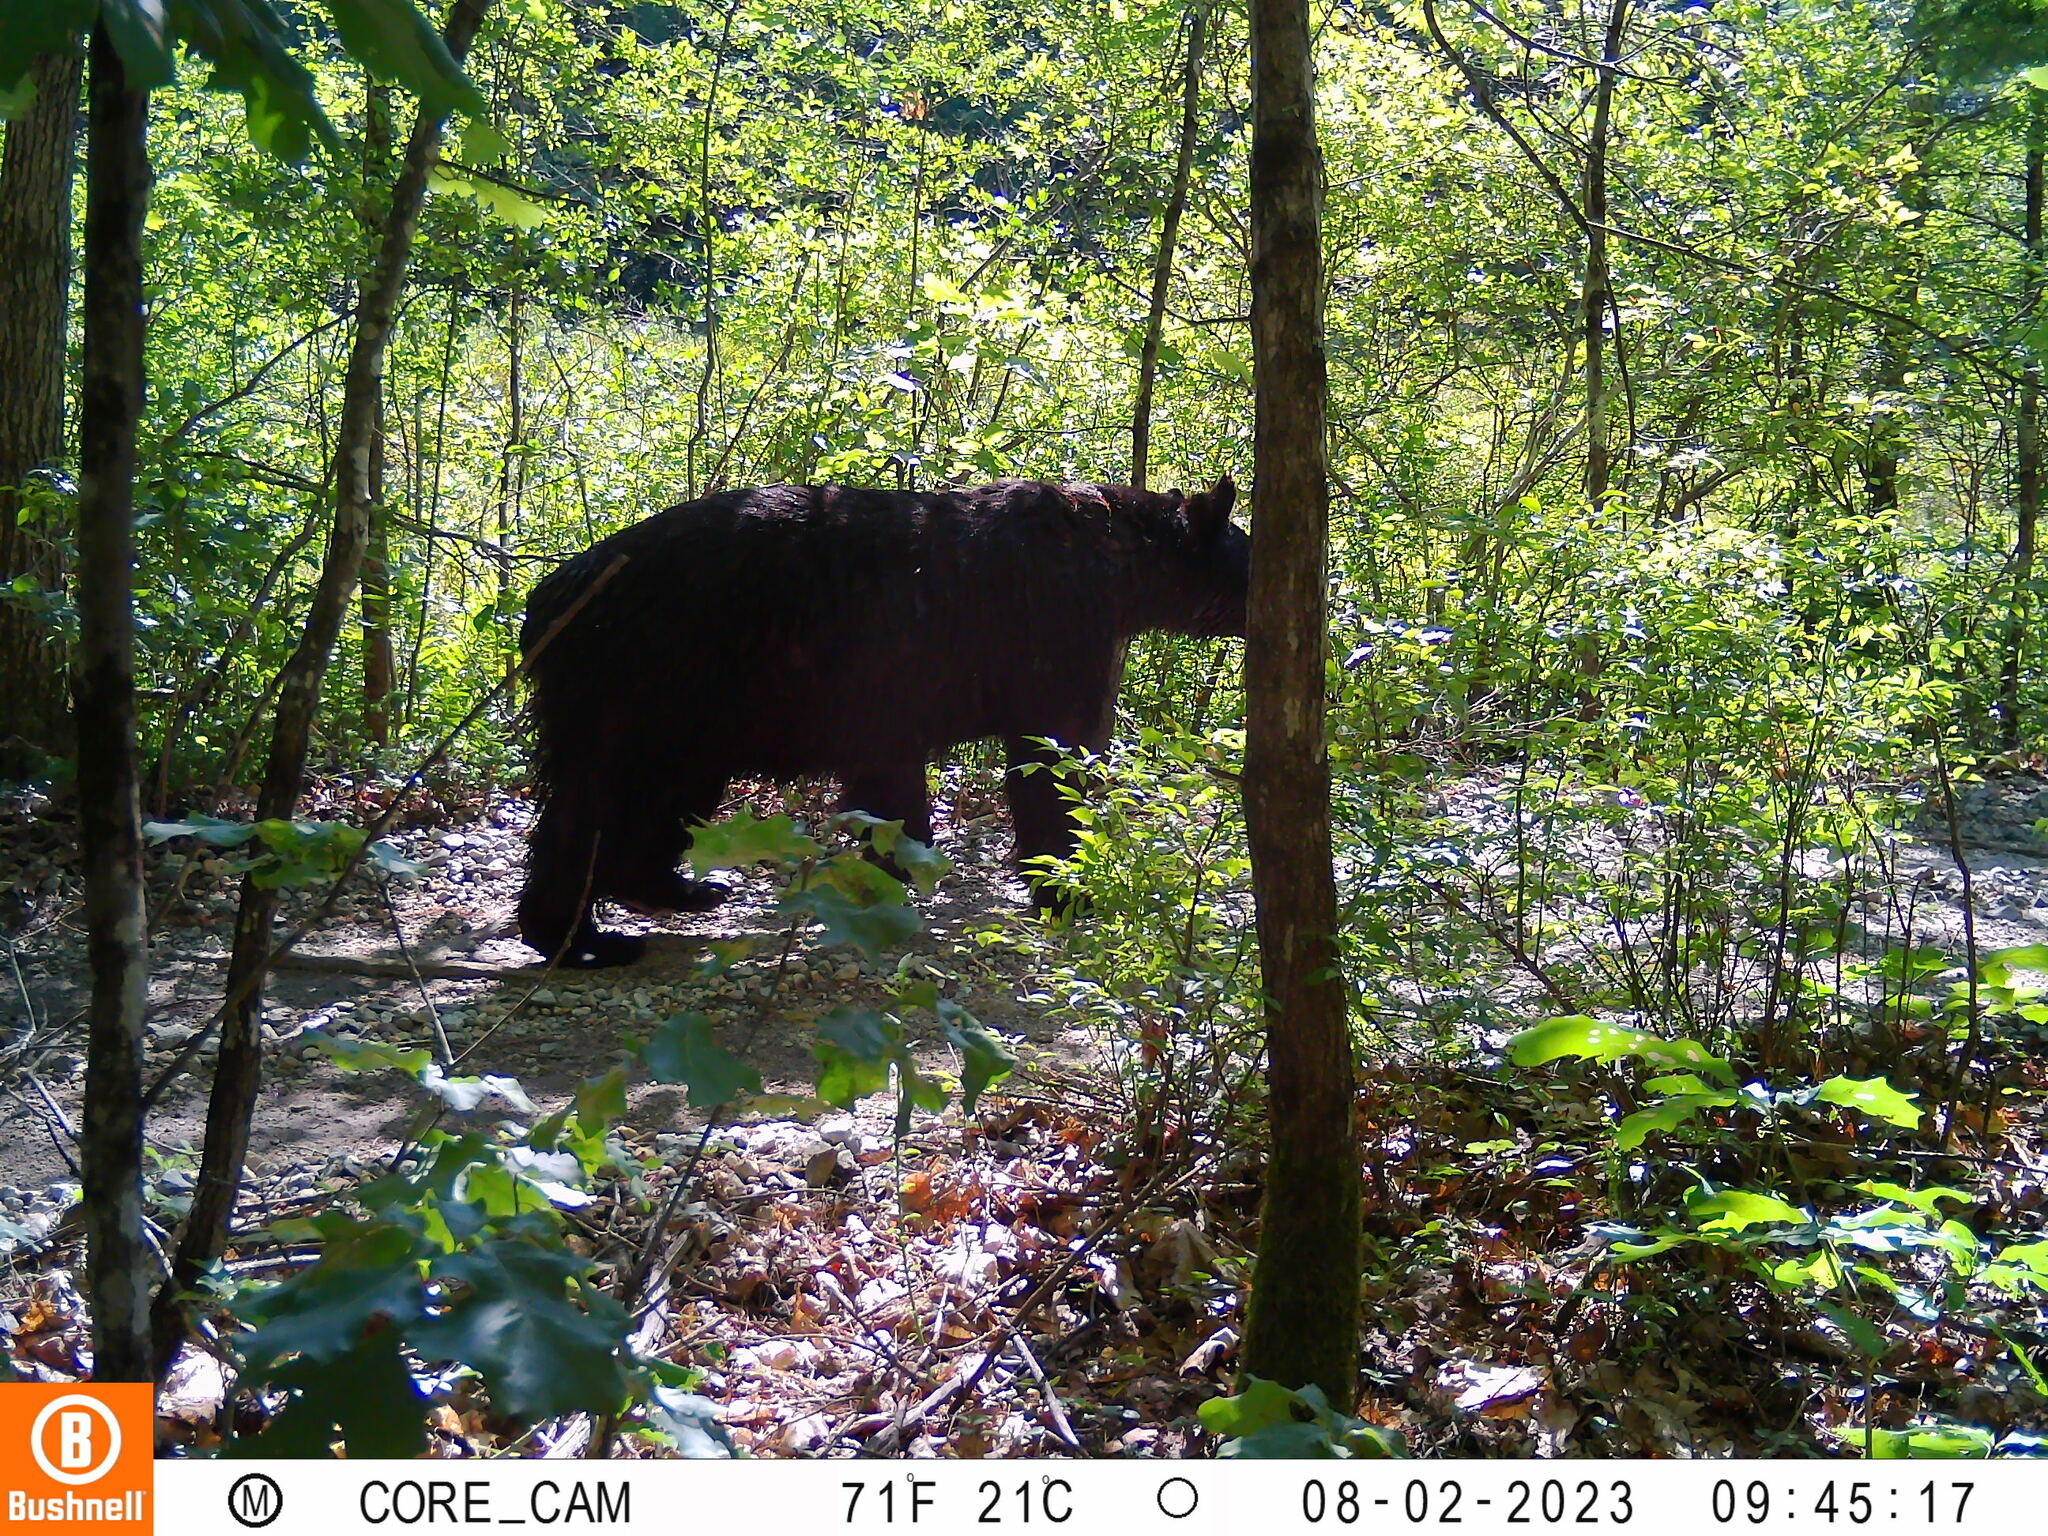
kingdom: Animalia
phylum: Chordata
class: Mammalia
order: Carnivora
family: Ursidae
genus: Ursus
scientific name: Ursus americanus
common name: American black bear
